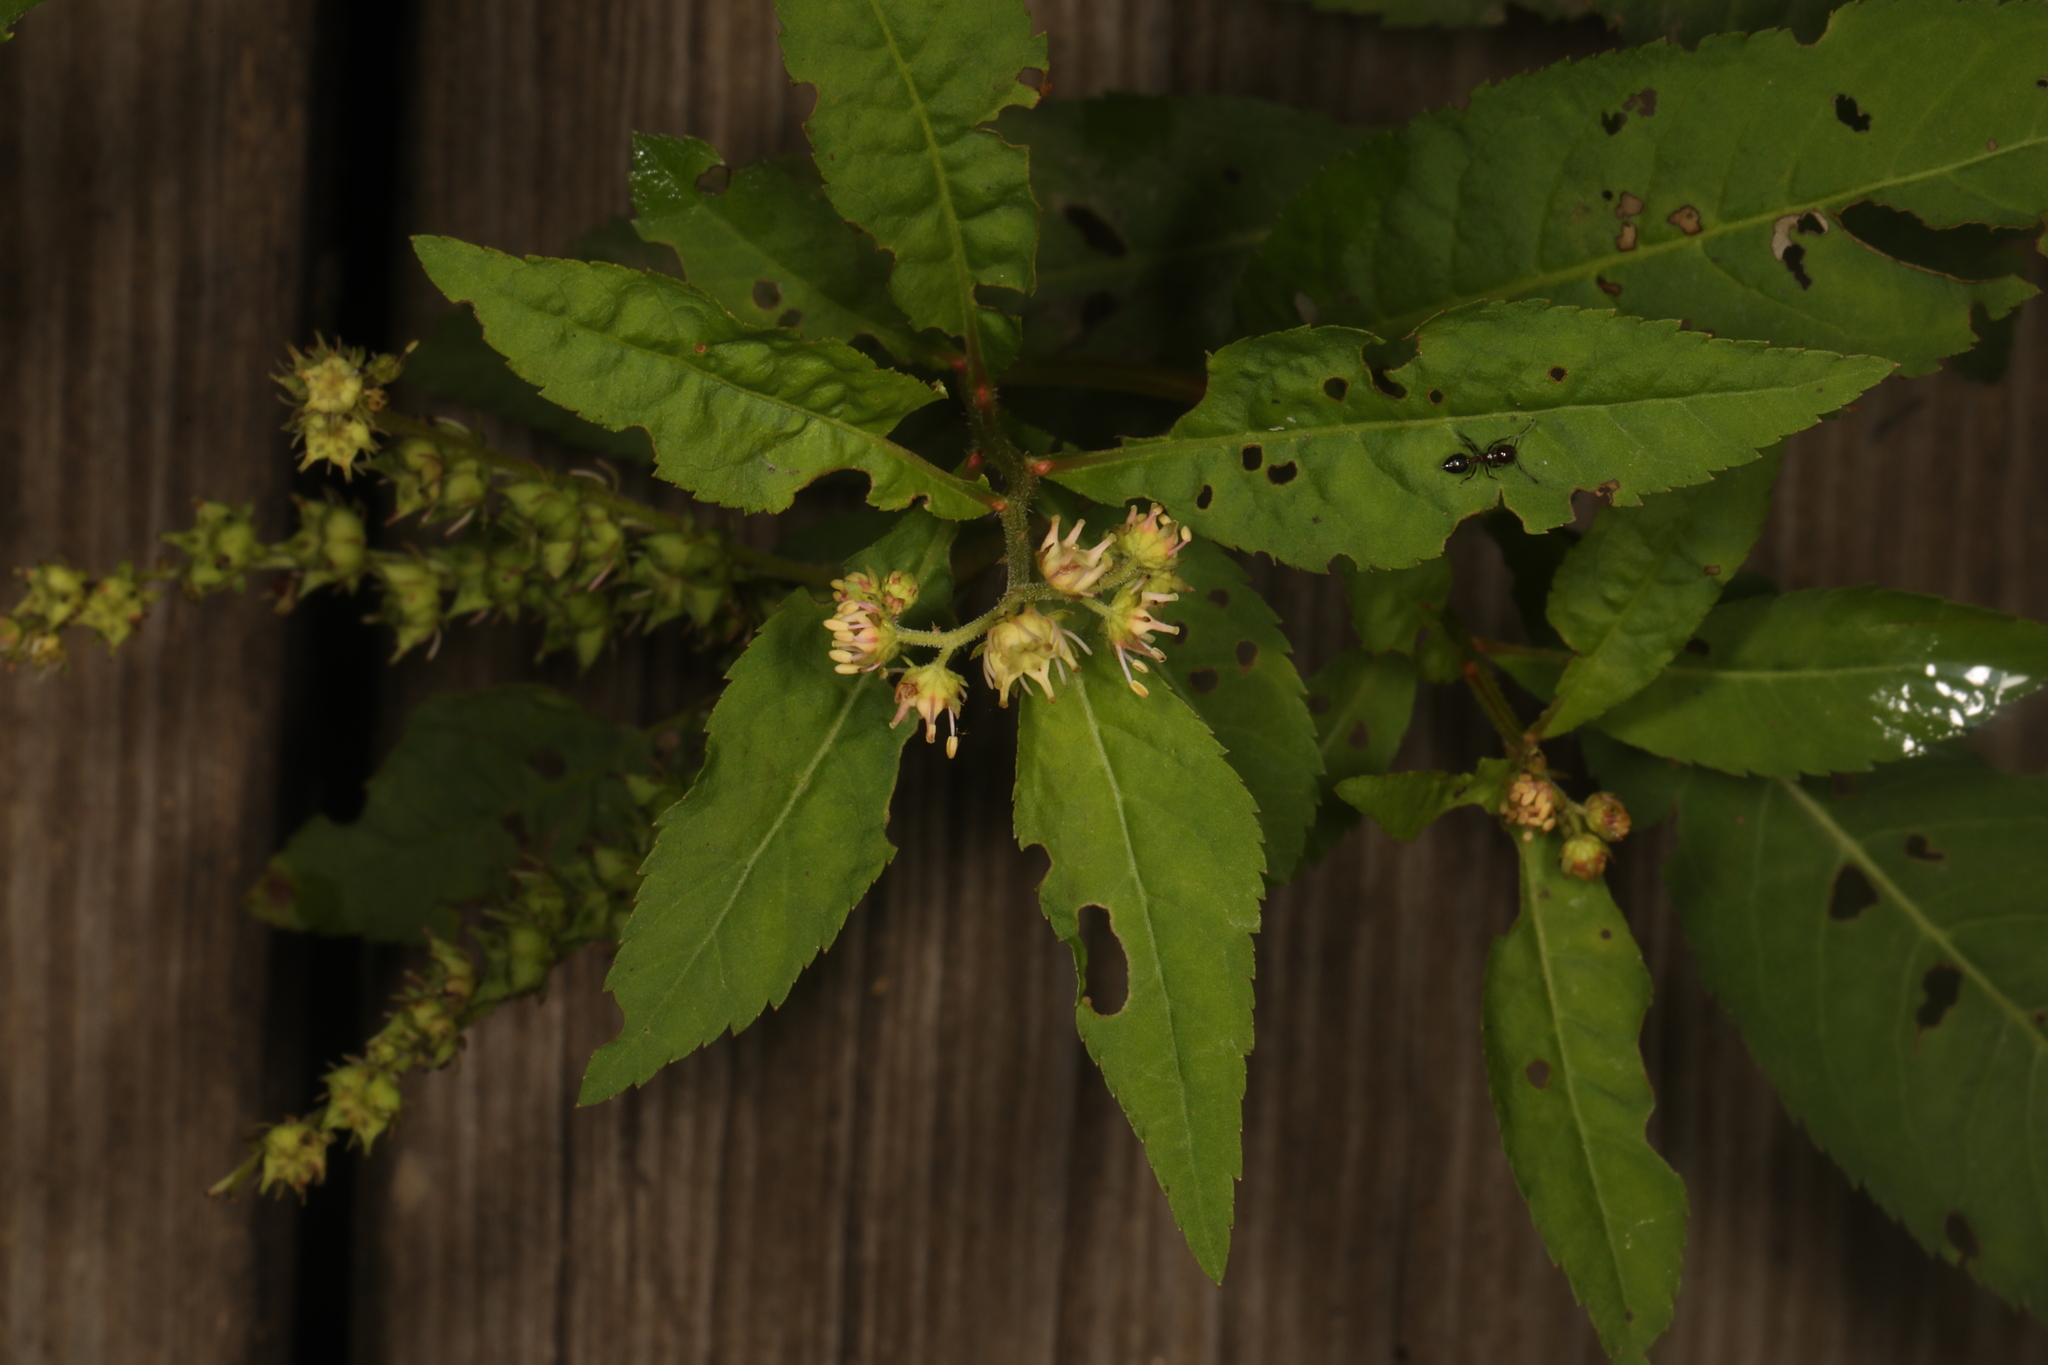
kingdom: Plantae
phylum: Tracheophyta
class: Magnoliopsida
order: Saxifragales
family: Penthoraceae
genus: Penthorum
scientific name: Penthorum sedoides
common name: Ditch stonecrop
